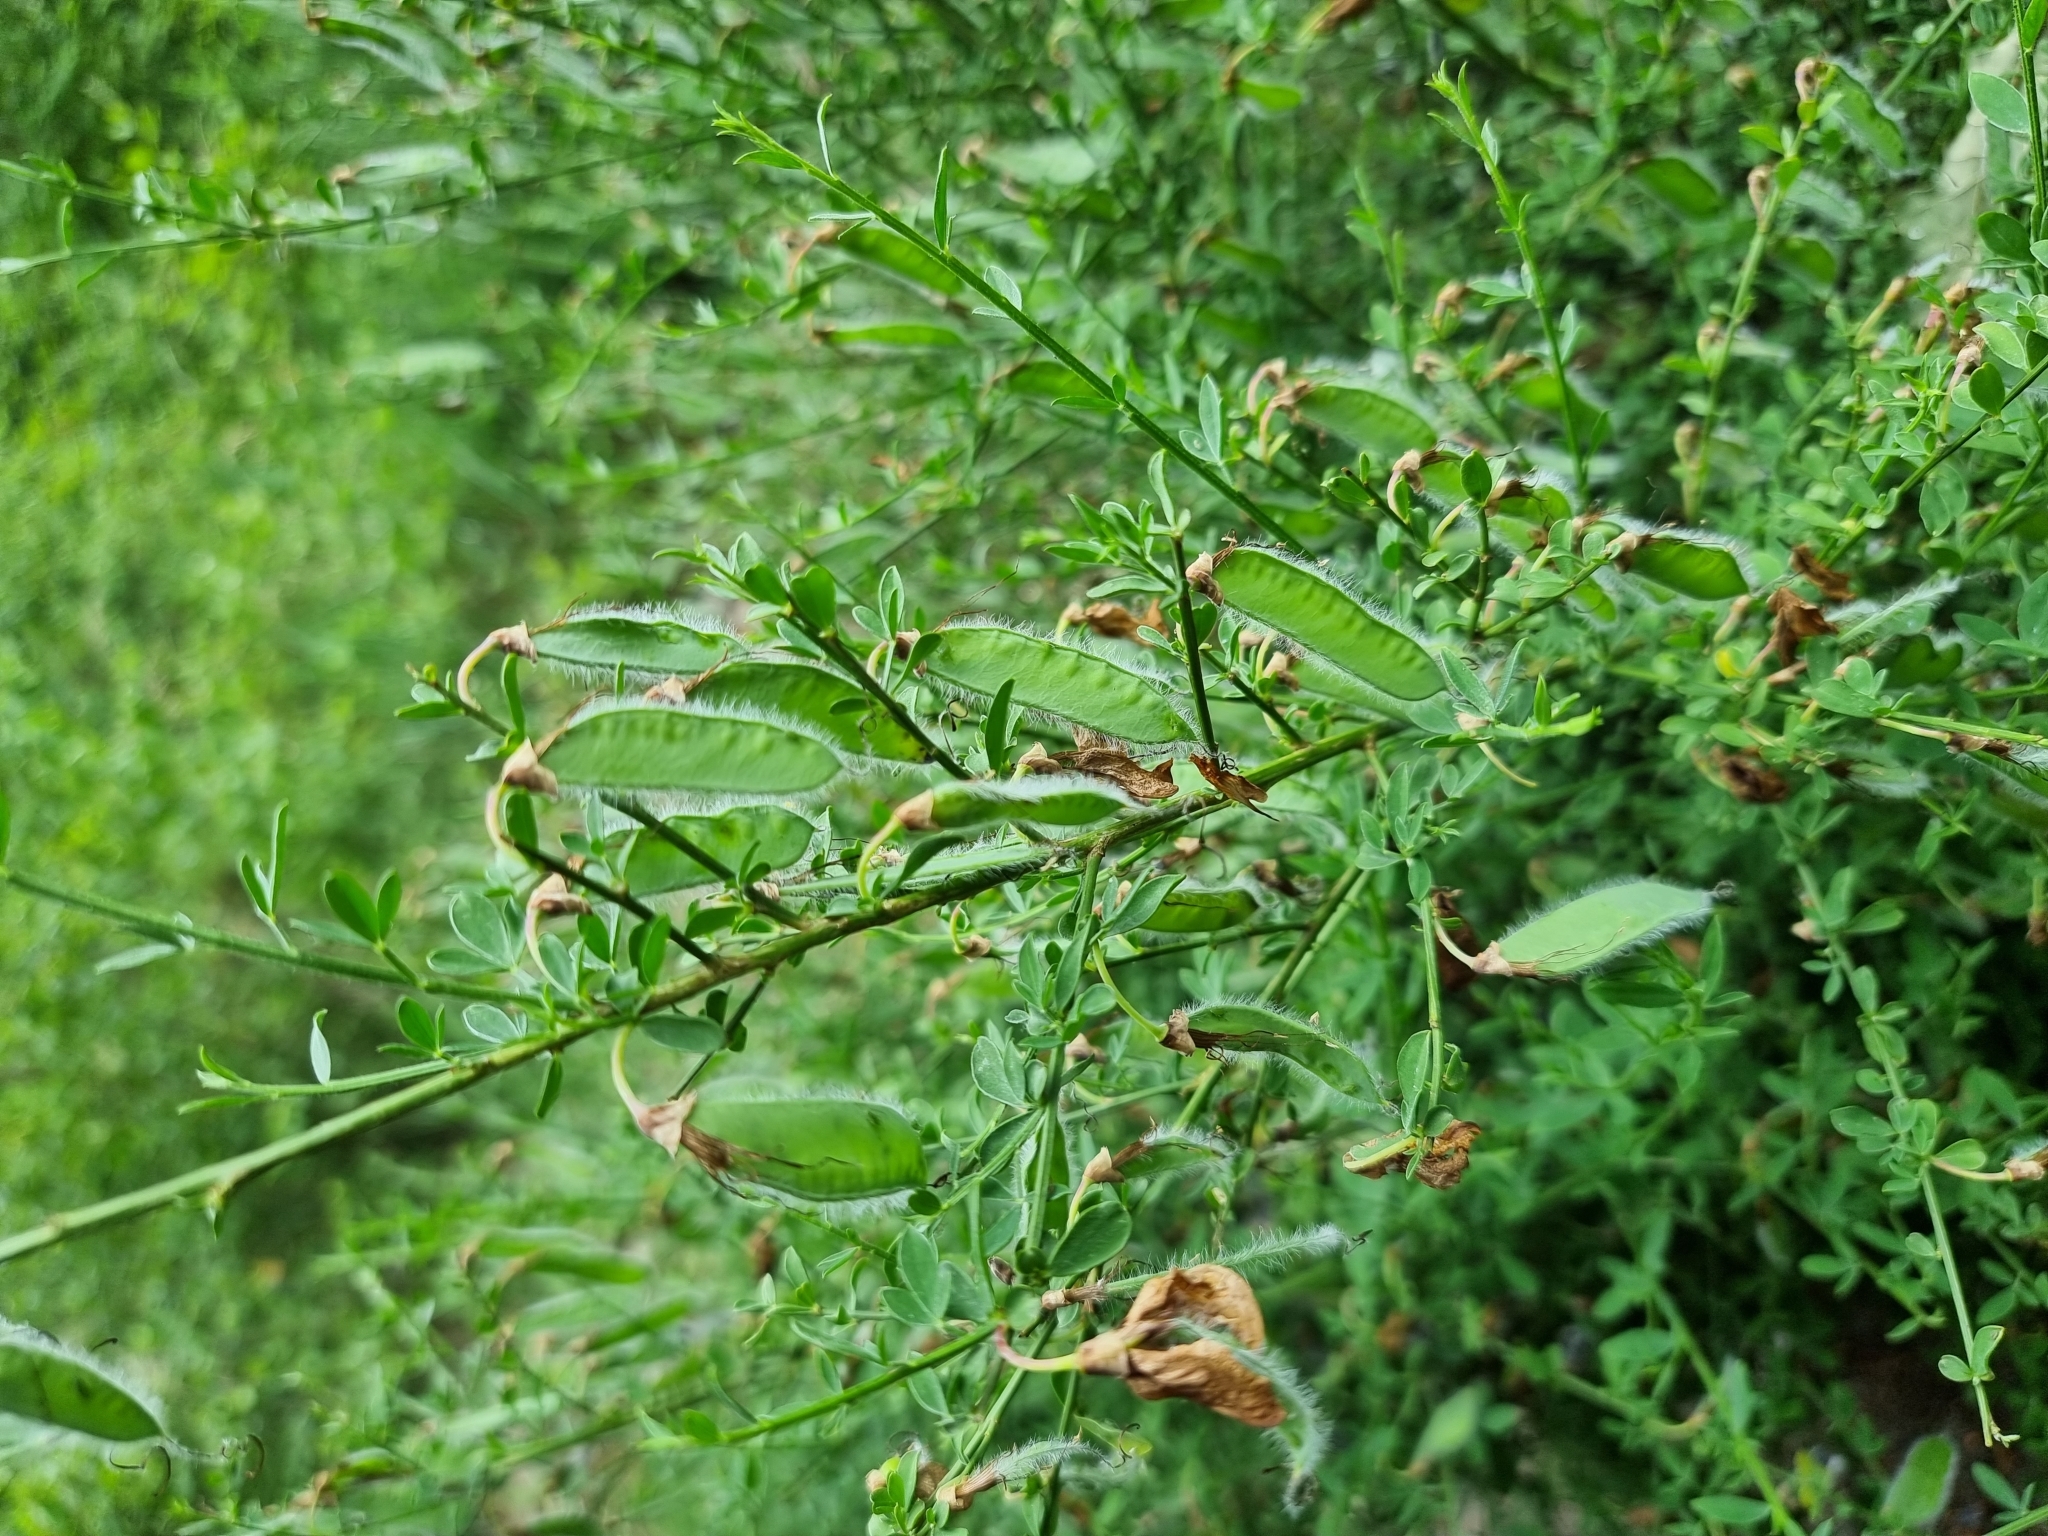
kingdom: Plantae
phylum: Tracheophyta
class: Magnoliopsida
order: Fabales
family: Fabaceae
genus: Cytisus
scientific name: Cytisus scoparius
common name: Scotch broom
